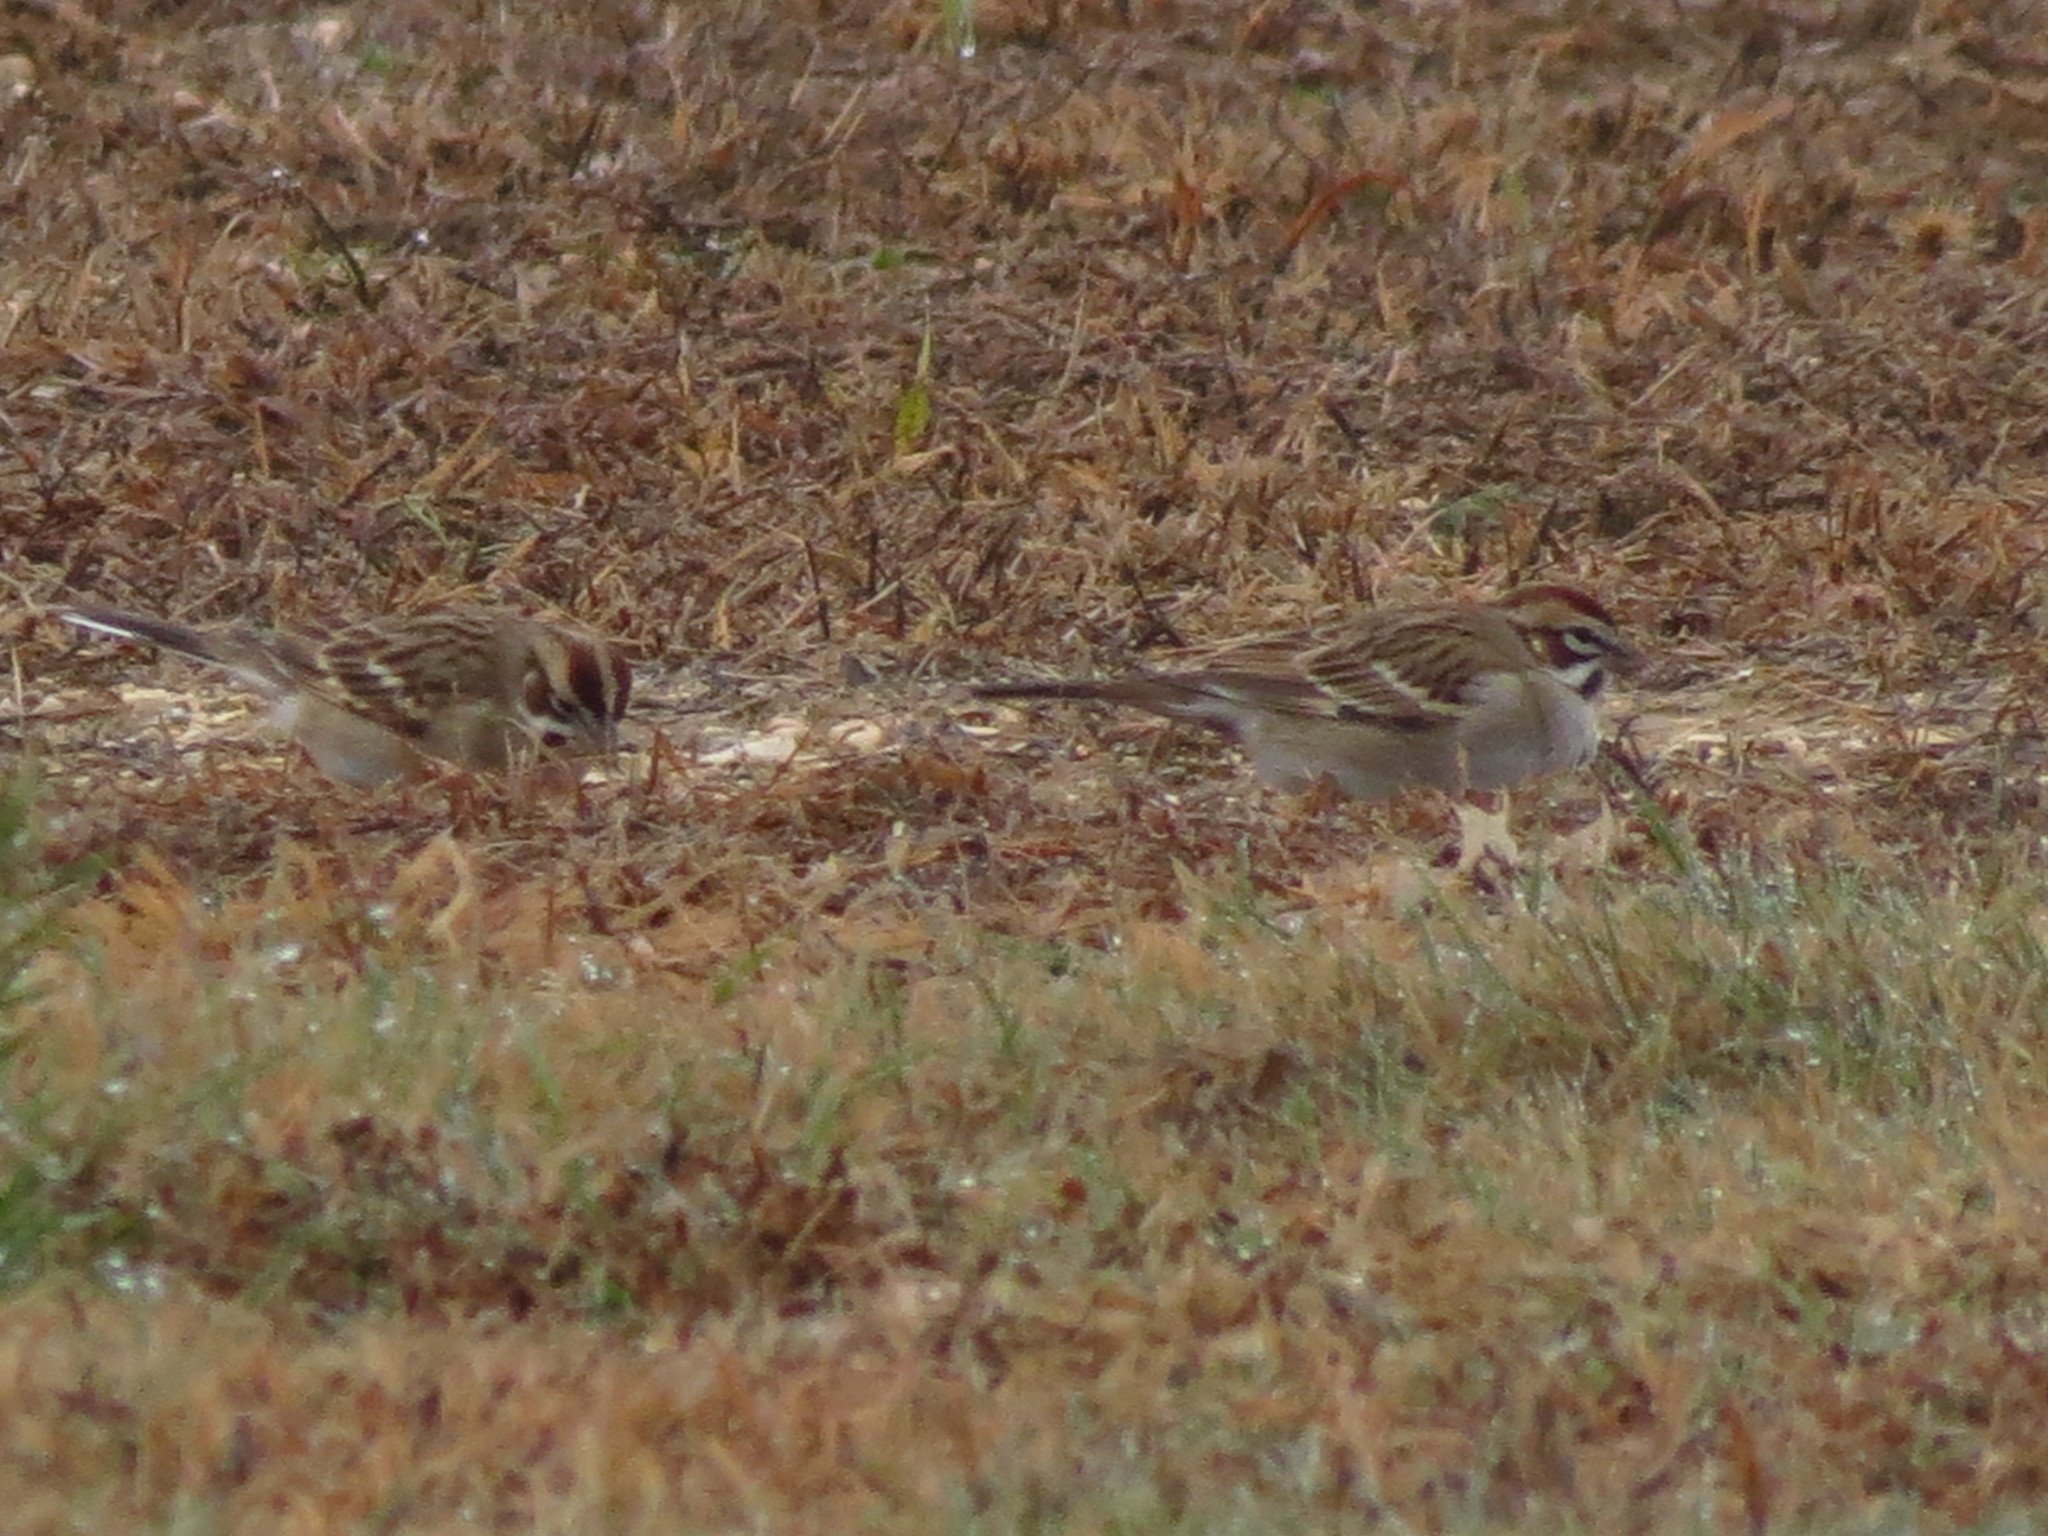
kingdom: Animalia
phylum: Chordata
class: Aves
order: Passeriformes
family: Passerellidae
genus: Chondestes
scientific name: Chondestes grammacus
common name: Lark sparrow
